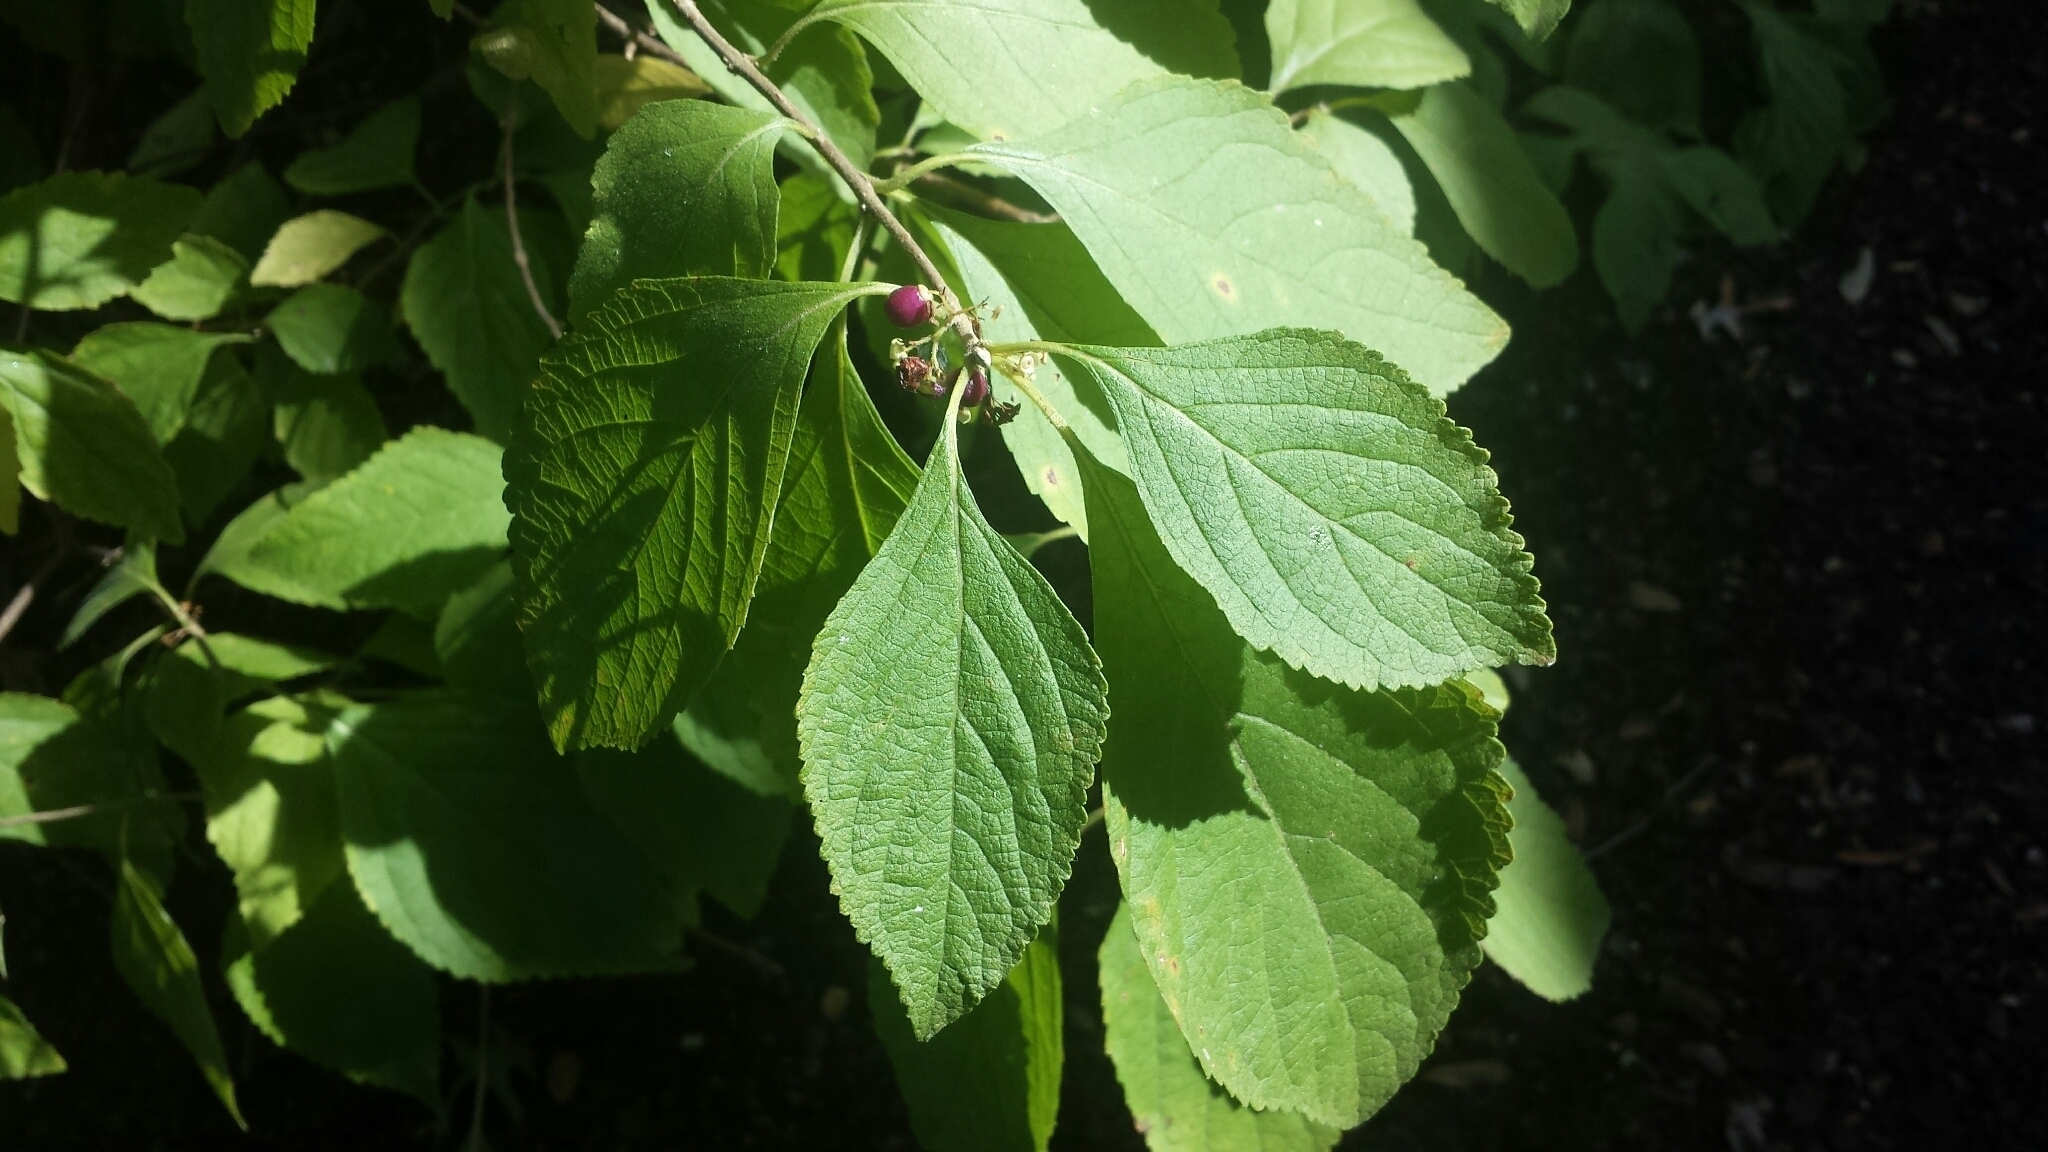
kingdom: Plantae
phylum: Tracheophyta
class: Magnoliopsida
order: Lamiales
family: Lamiaceae
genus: Callicarpa
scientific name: Callicarpa americana
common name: American beautyberry
